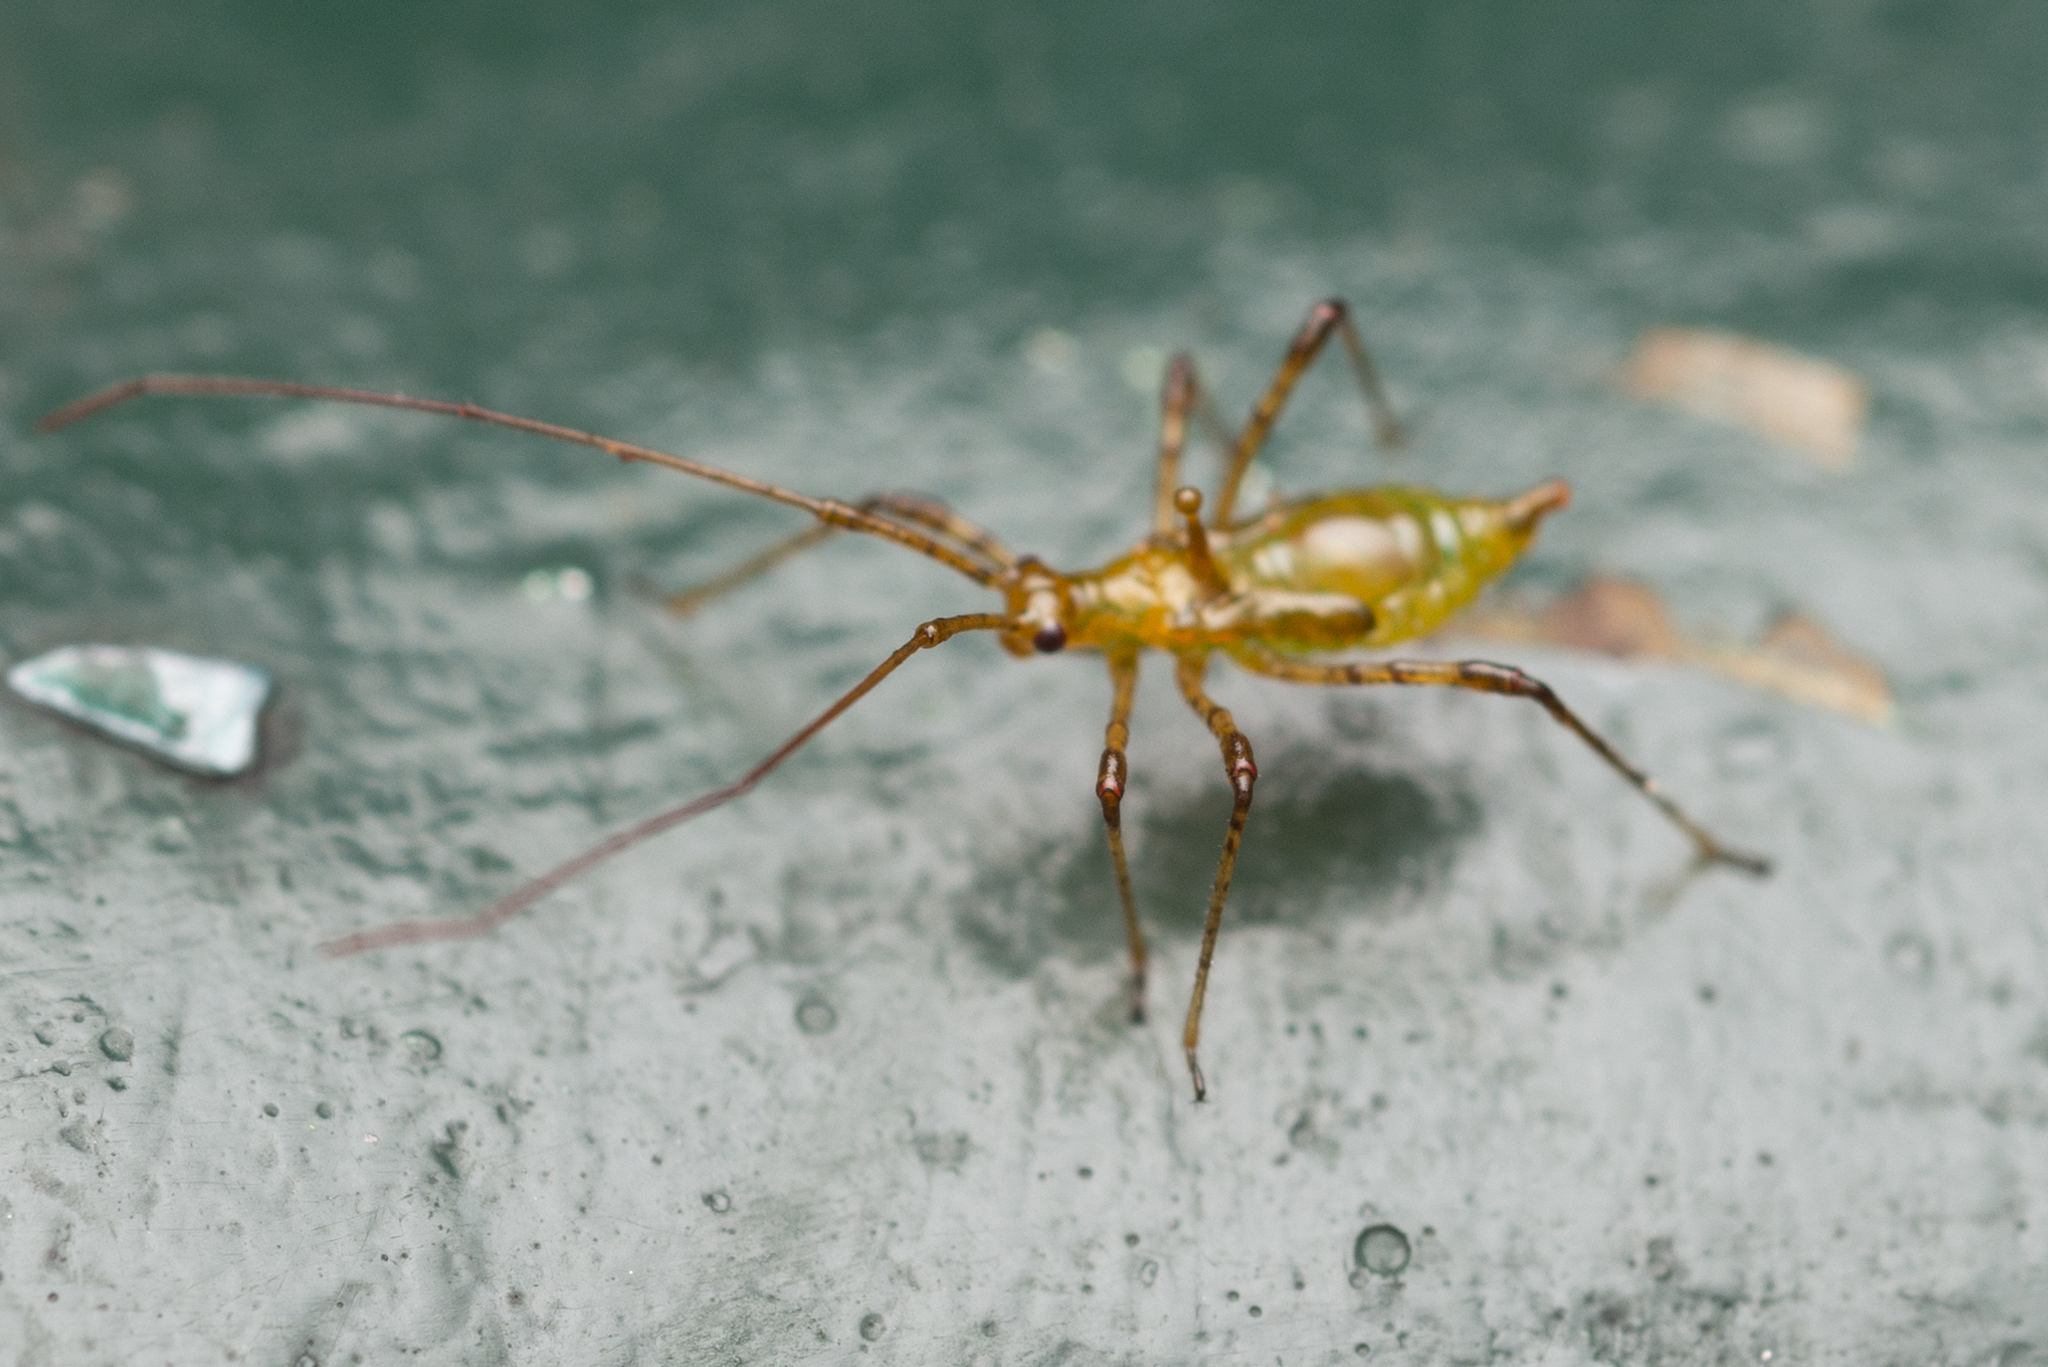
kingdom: Animalia
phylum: Arthropoda
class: Insecta
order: Hemiptera
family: Miridae
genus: Helopeltis
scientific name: Helopeltis theivora
